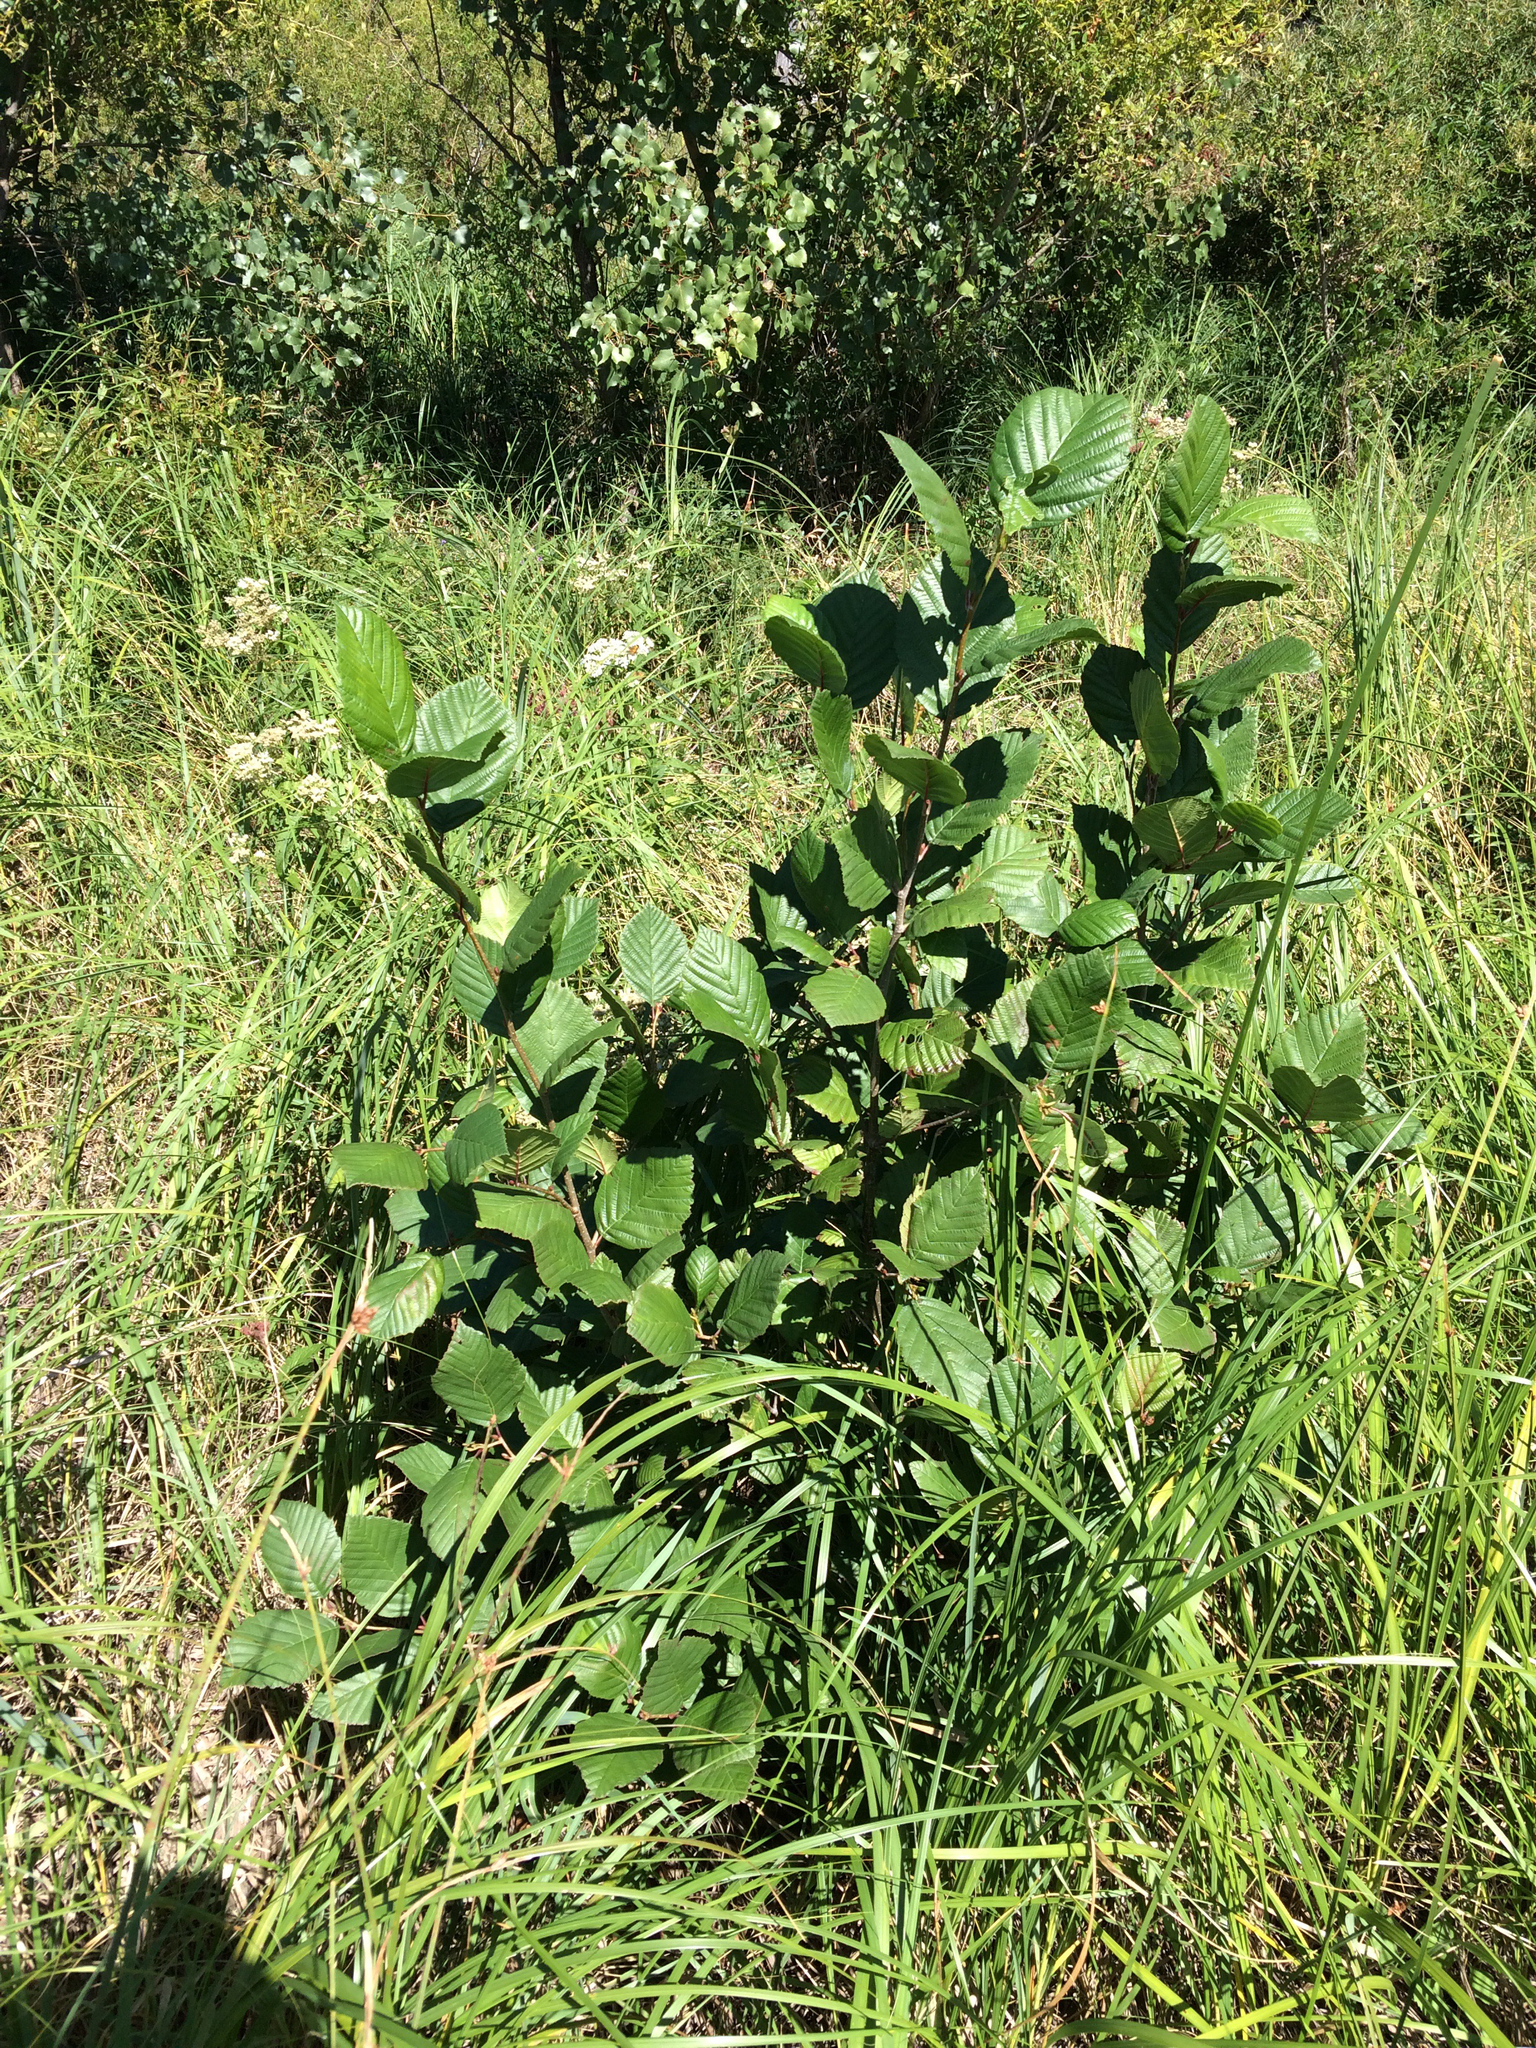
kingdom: Plantae
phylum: Tracheophyta
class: Magnoliopsida
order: Fagales
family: Betulaceae
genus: Alnus
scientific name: Alnus incana
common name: Grey alder
